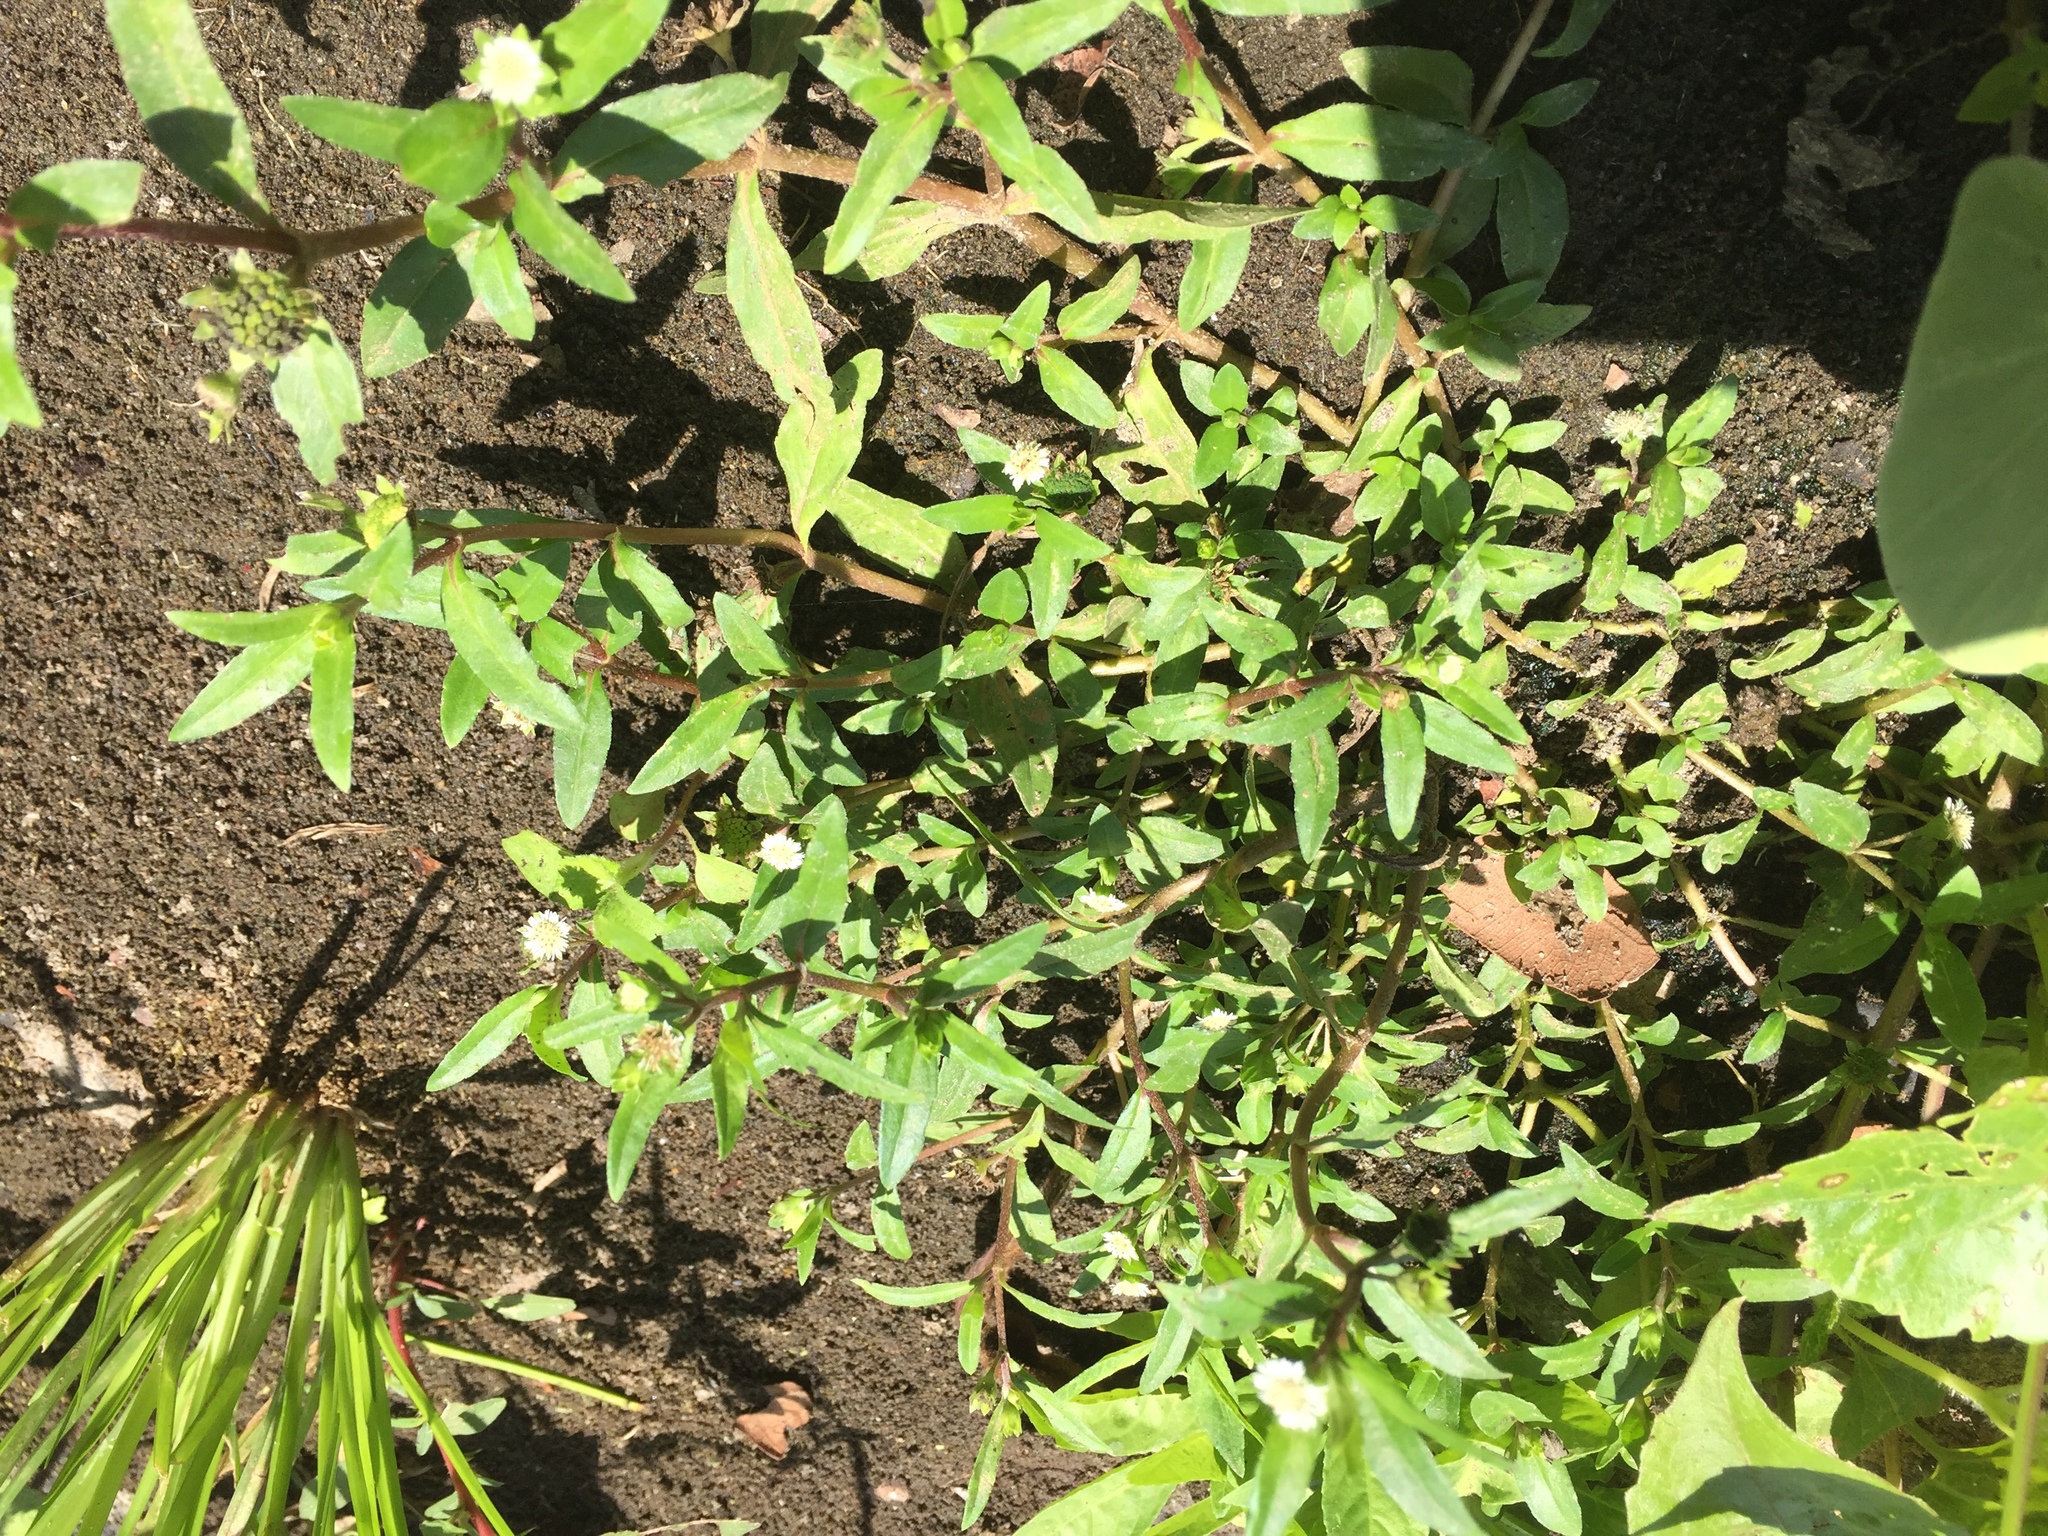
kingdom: Plantae
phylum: Tracheophyta
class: Magnoliopsida
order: Asterales
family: Asteraceae
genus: Eclipta
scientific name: Eclipta prostrata
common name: False daisy
